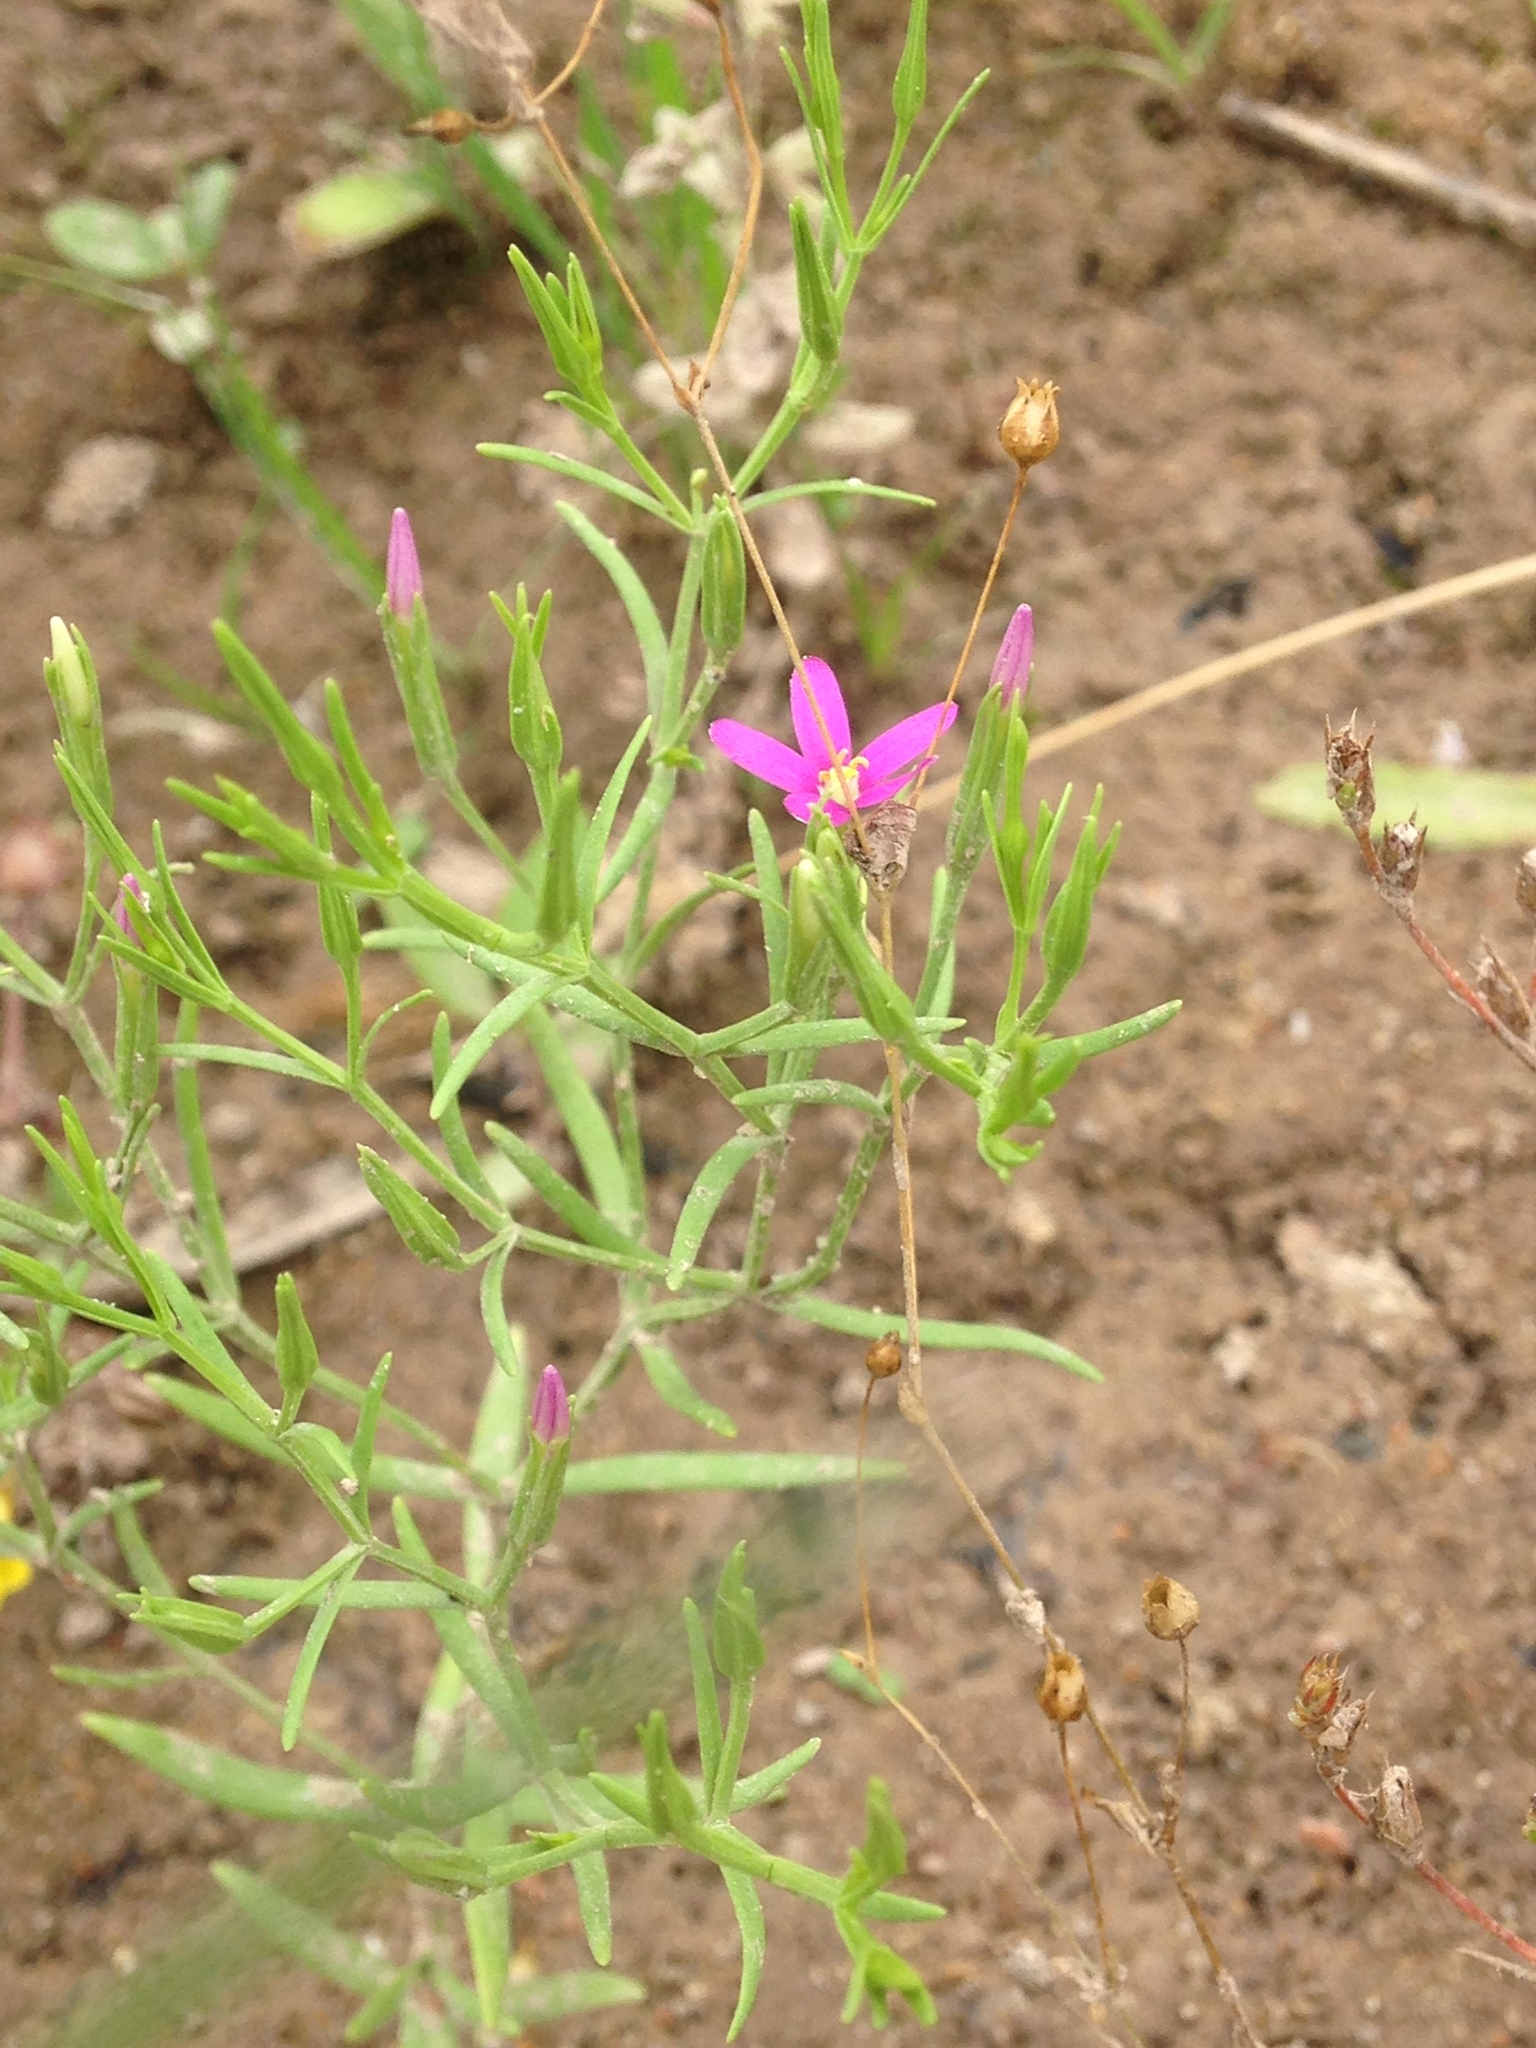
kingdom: Plantae
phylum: Tracheophyta
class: Magnoliopsida
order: Gentianales
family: Gentianaceae
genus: Zeltnera
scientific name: Zeltnera calycosa
